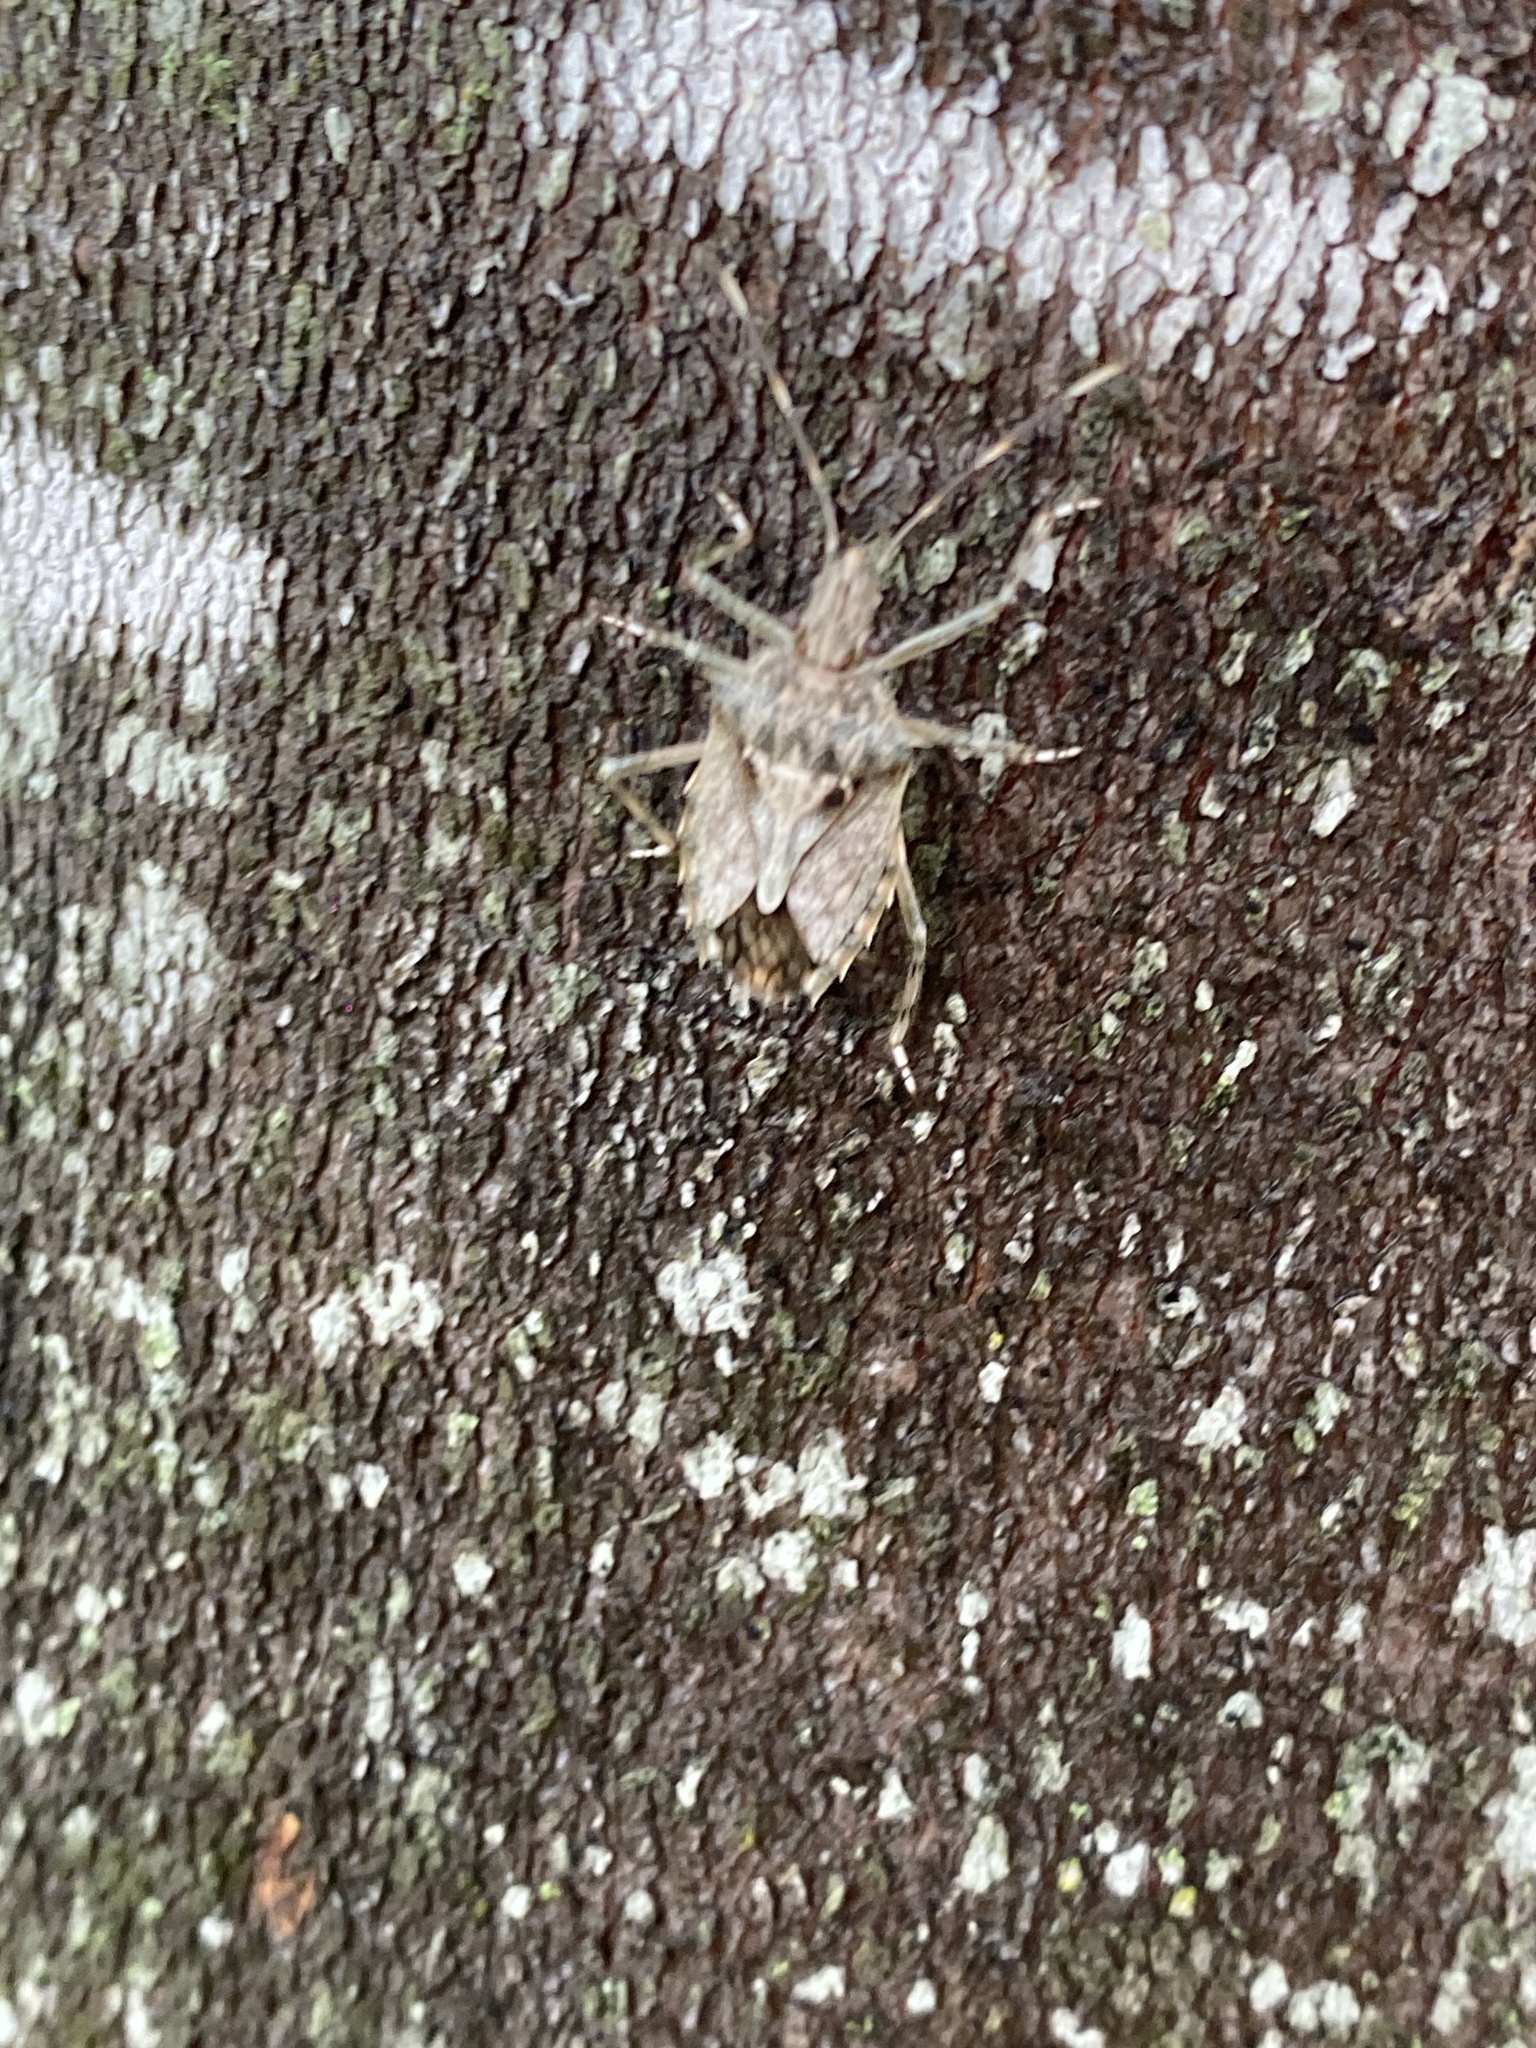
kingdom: Animalia
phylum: Arthropoda
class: Insecta
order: Hemiptera
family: Pentatomidae
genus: Bromocoris
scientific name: Bromocoris
